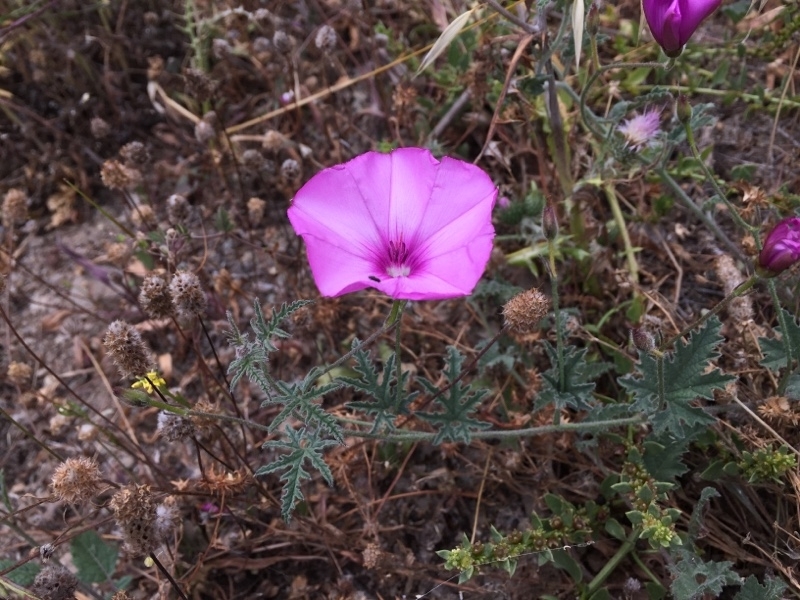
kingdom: Plantae
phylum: Tracheophyta
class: Magnoliopsida
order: Solanales
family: Convolvulaceae
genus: Convolvulus
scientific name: Convolvulus althaeoides
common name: Mallow bindweed
